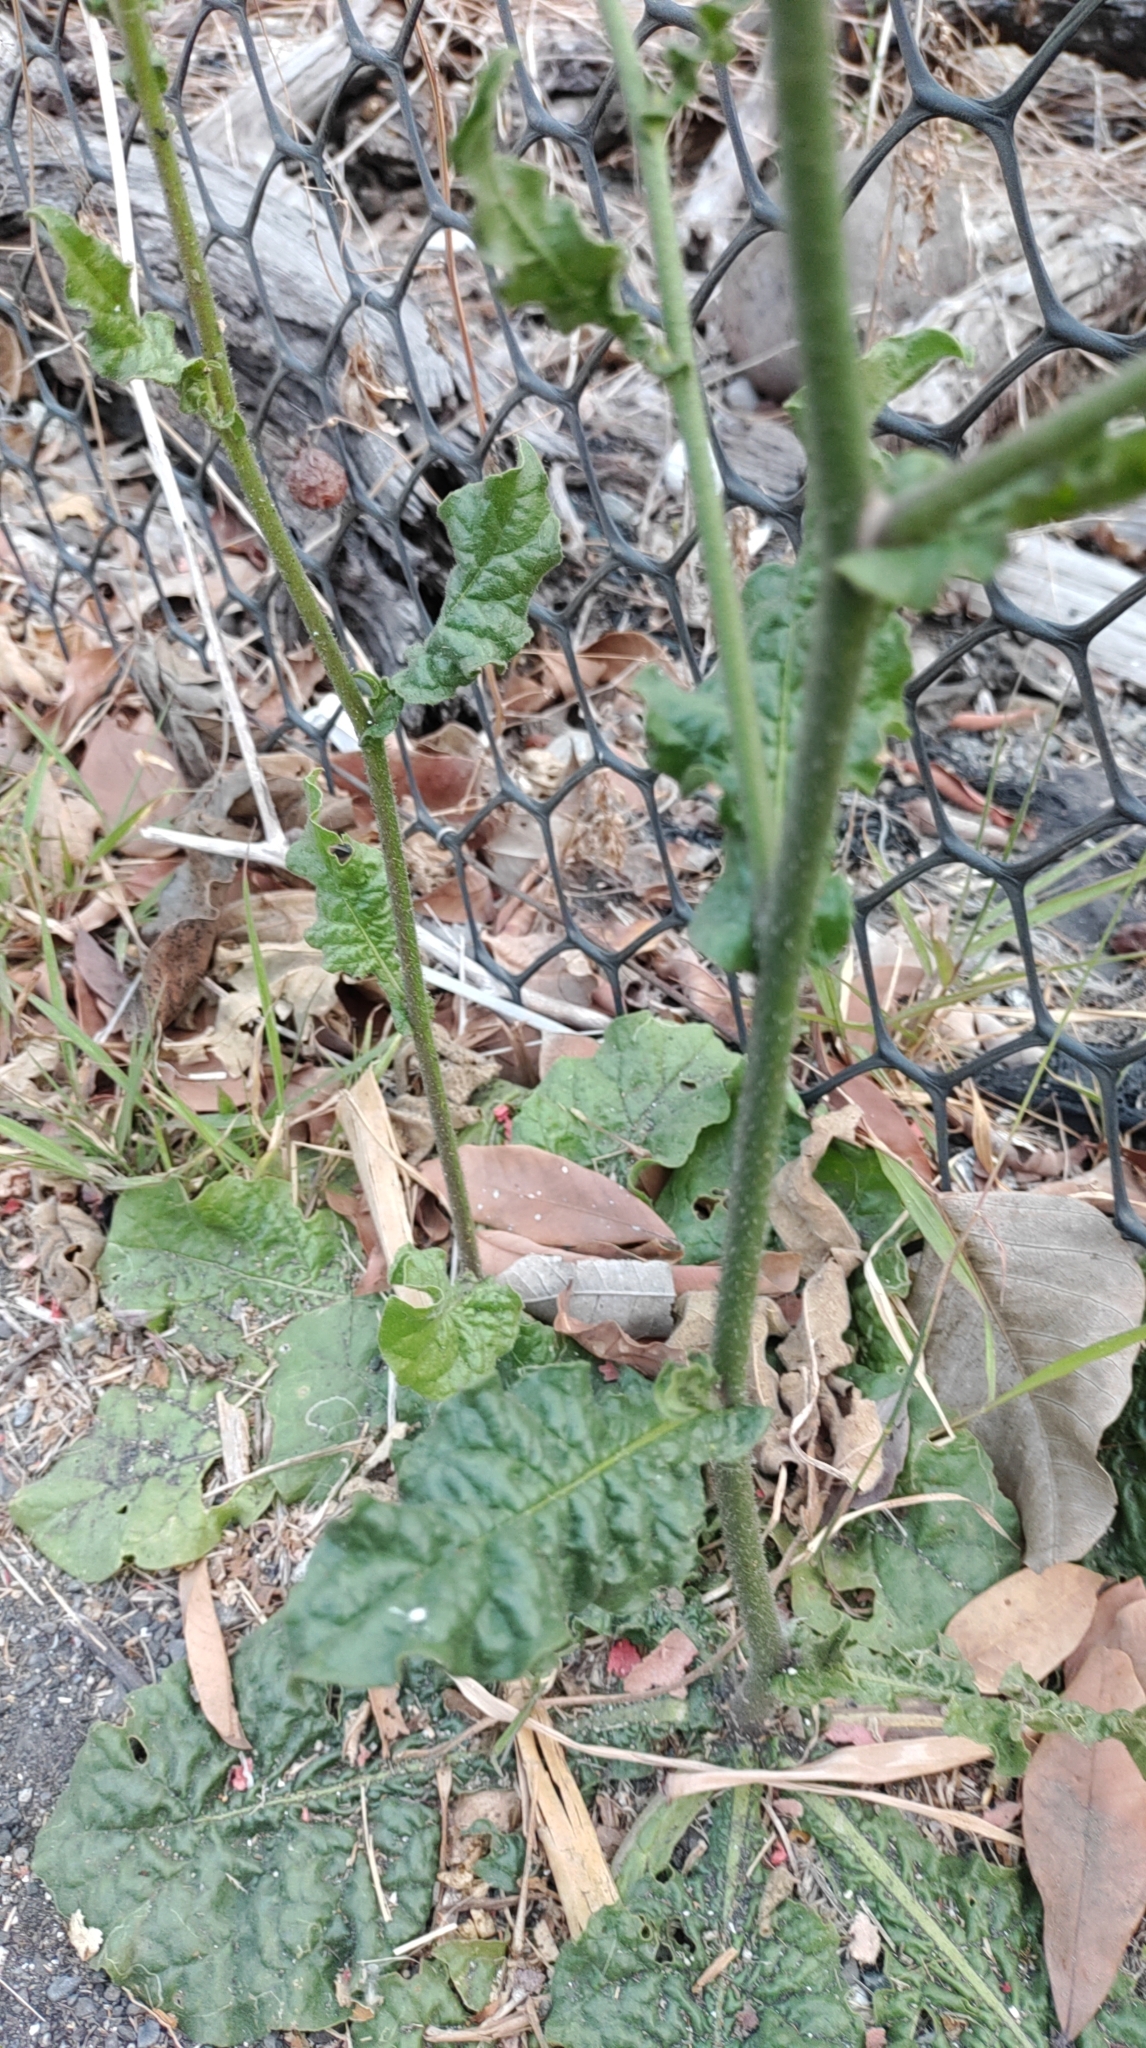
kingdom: Plantae
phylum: Tracheophyta
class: Magnoliopsida
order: Solanales
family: Solanaceae
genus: Nicotiana
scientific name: Nicotiana plumbaginifolia
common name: Tex-mex tobacco
